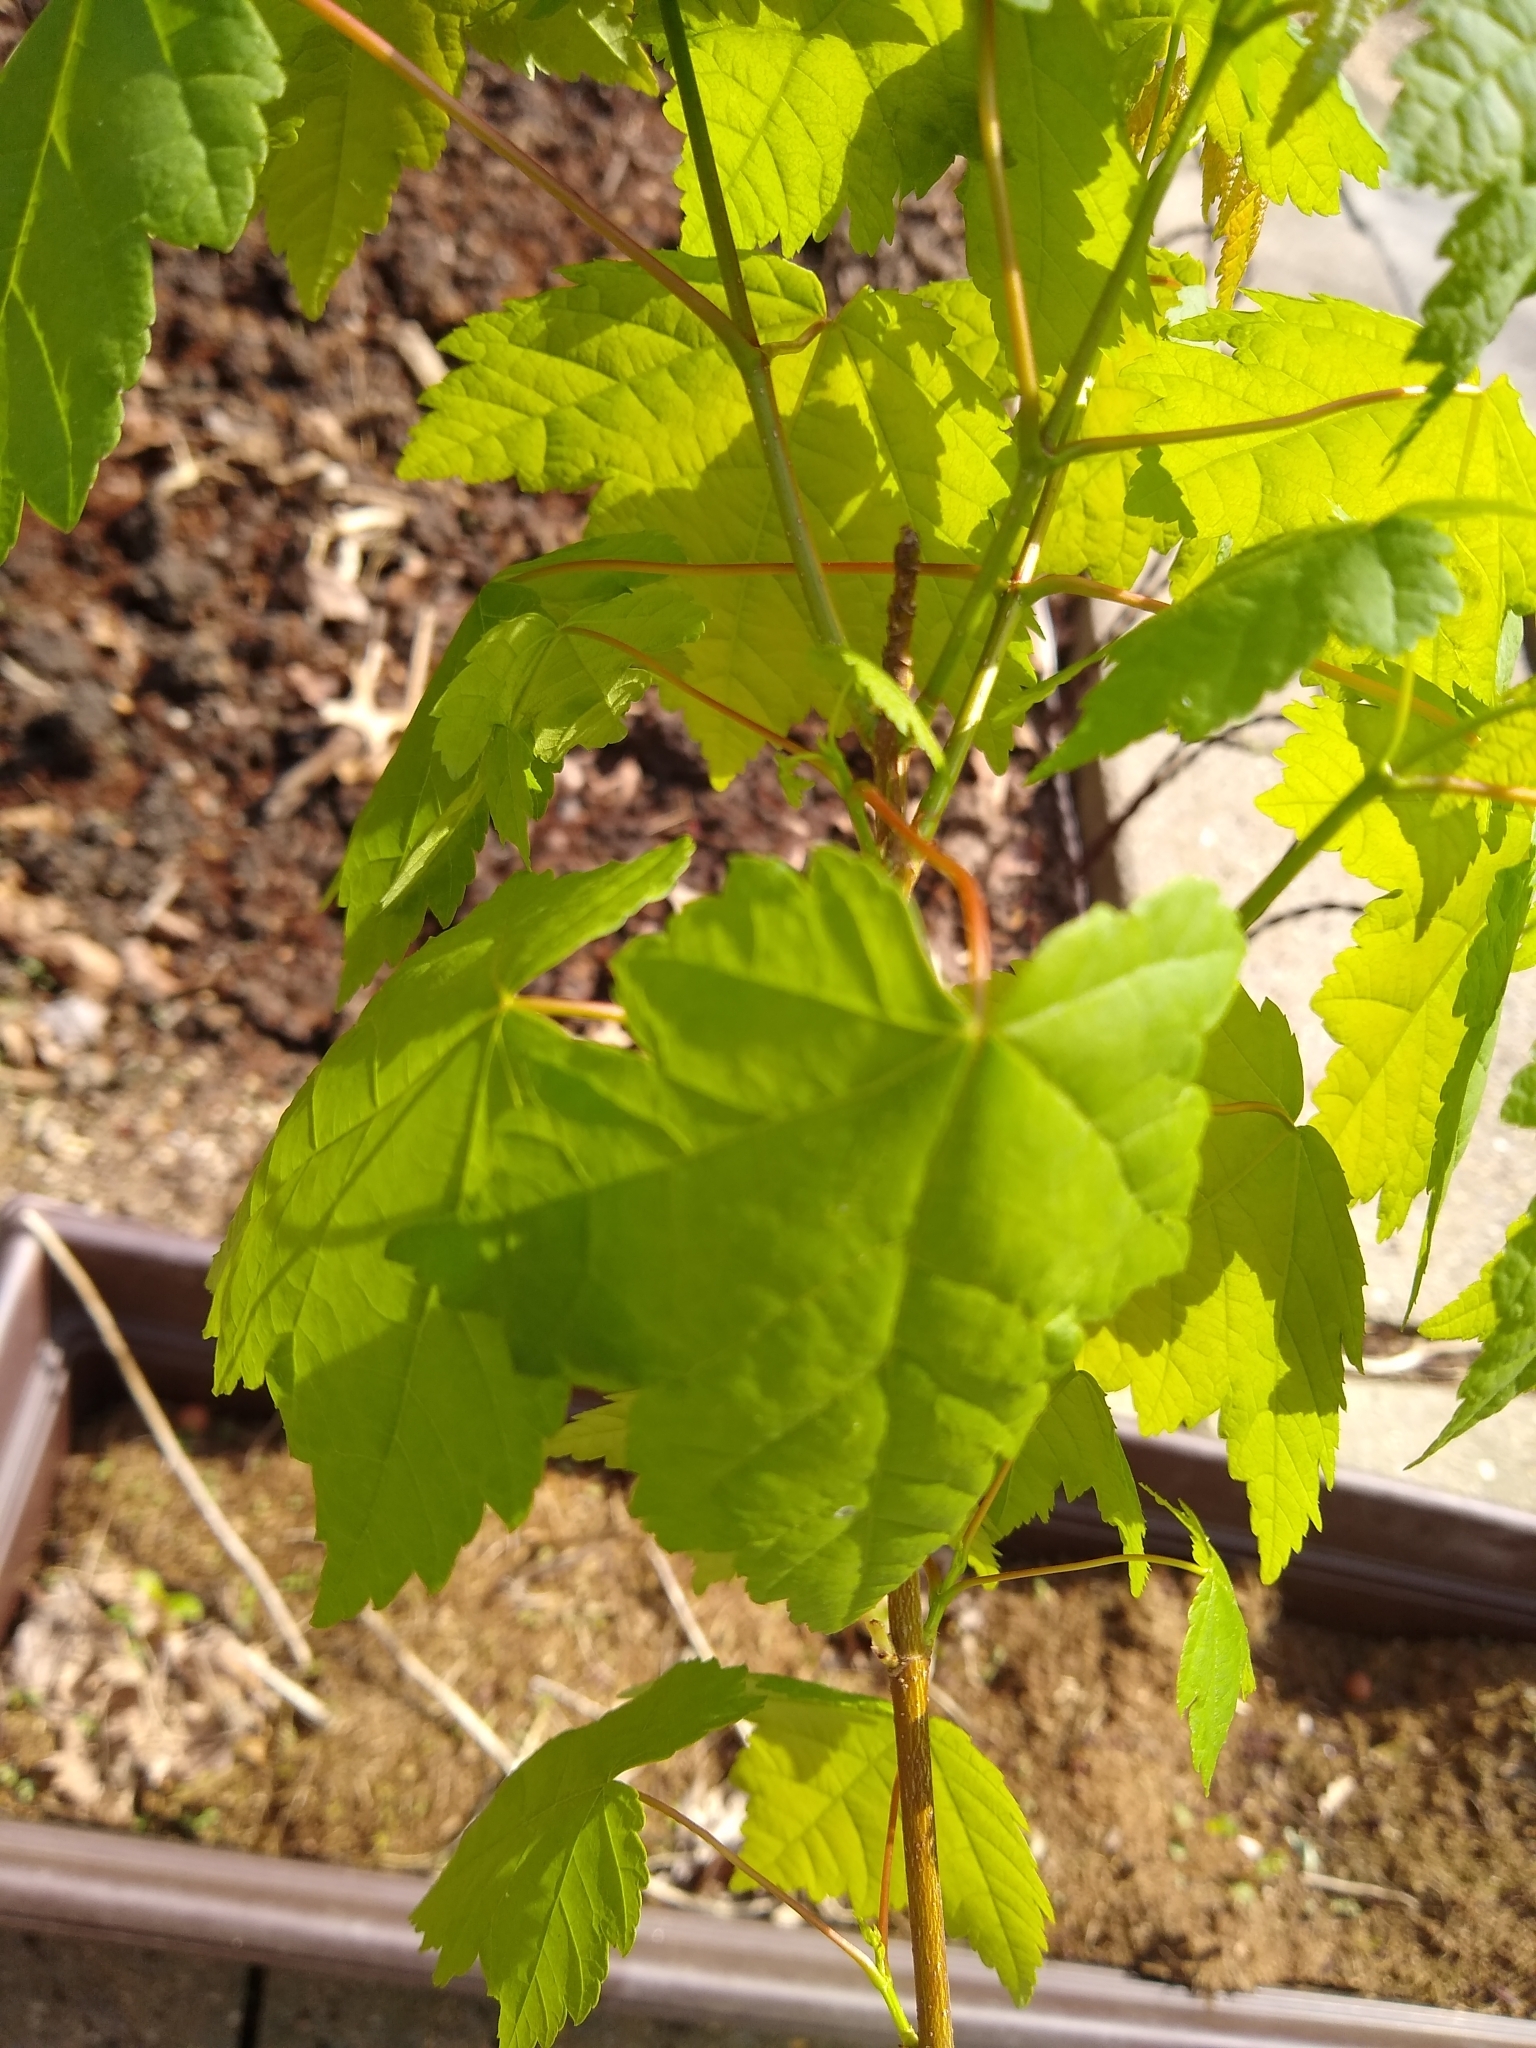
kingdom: Plantae
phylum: Tracheophyta
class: Magnoliopsida
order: Sapindales
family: Sapindaceae
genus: Acer
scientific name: Acer rubrum
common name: Red maple
